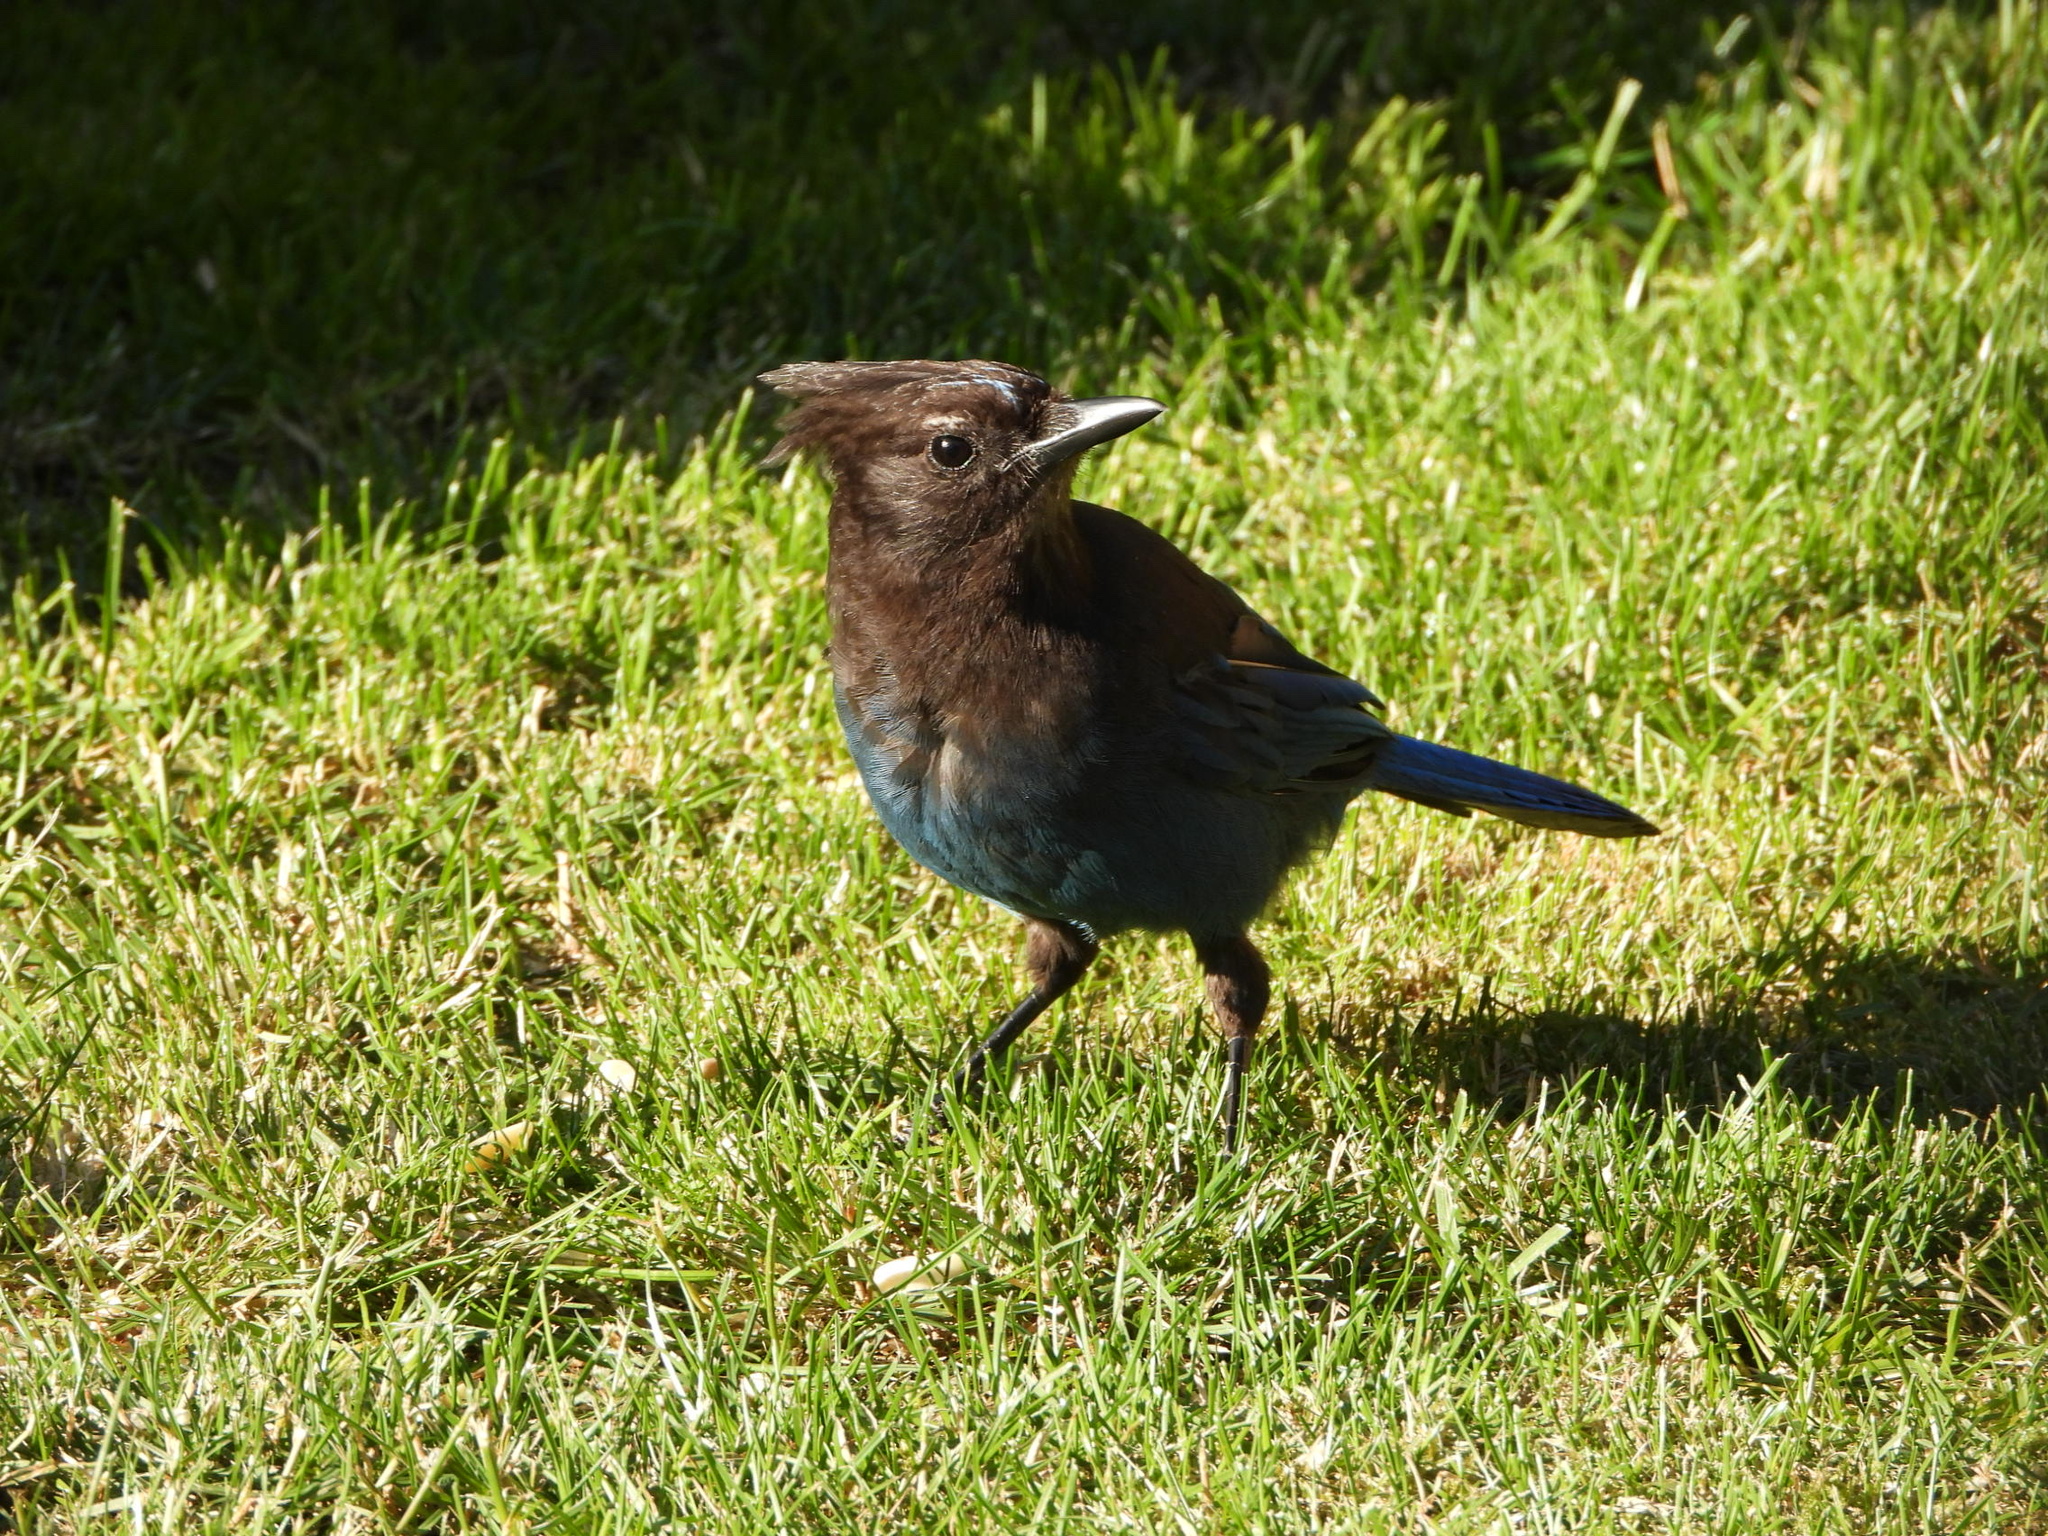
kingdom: Animalia
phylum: Chordata
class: Aves
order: Passeriformes
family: Corvidae
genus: Cyanocitta
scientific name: Cyanocitta stelleri
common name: Steller's jay
